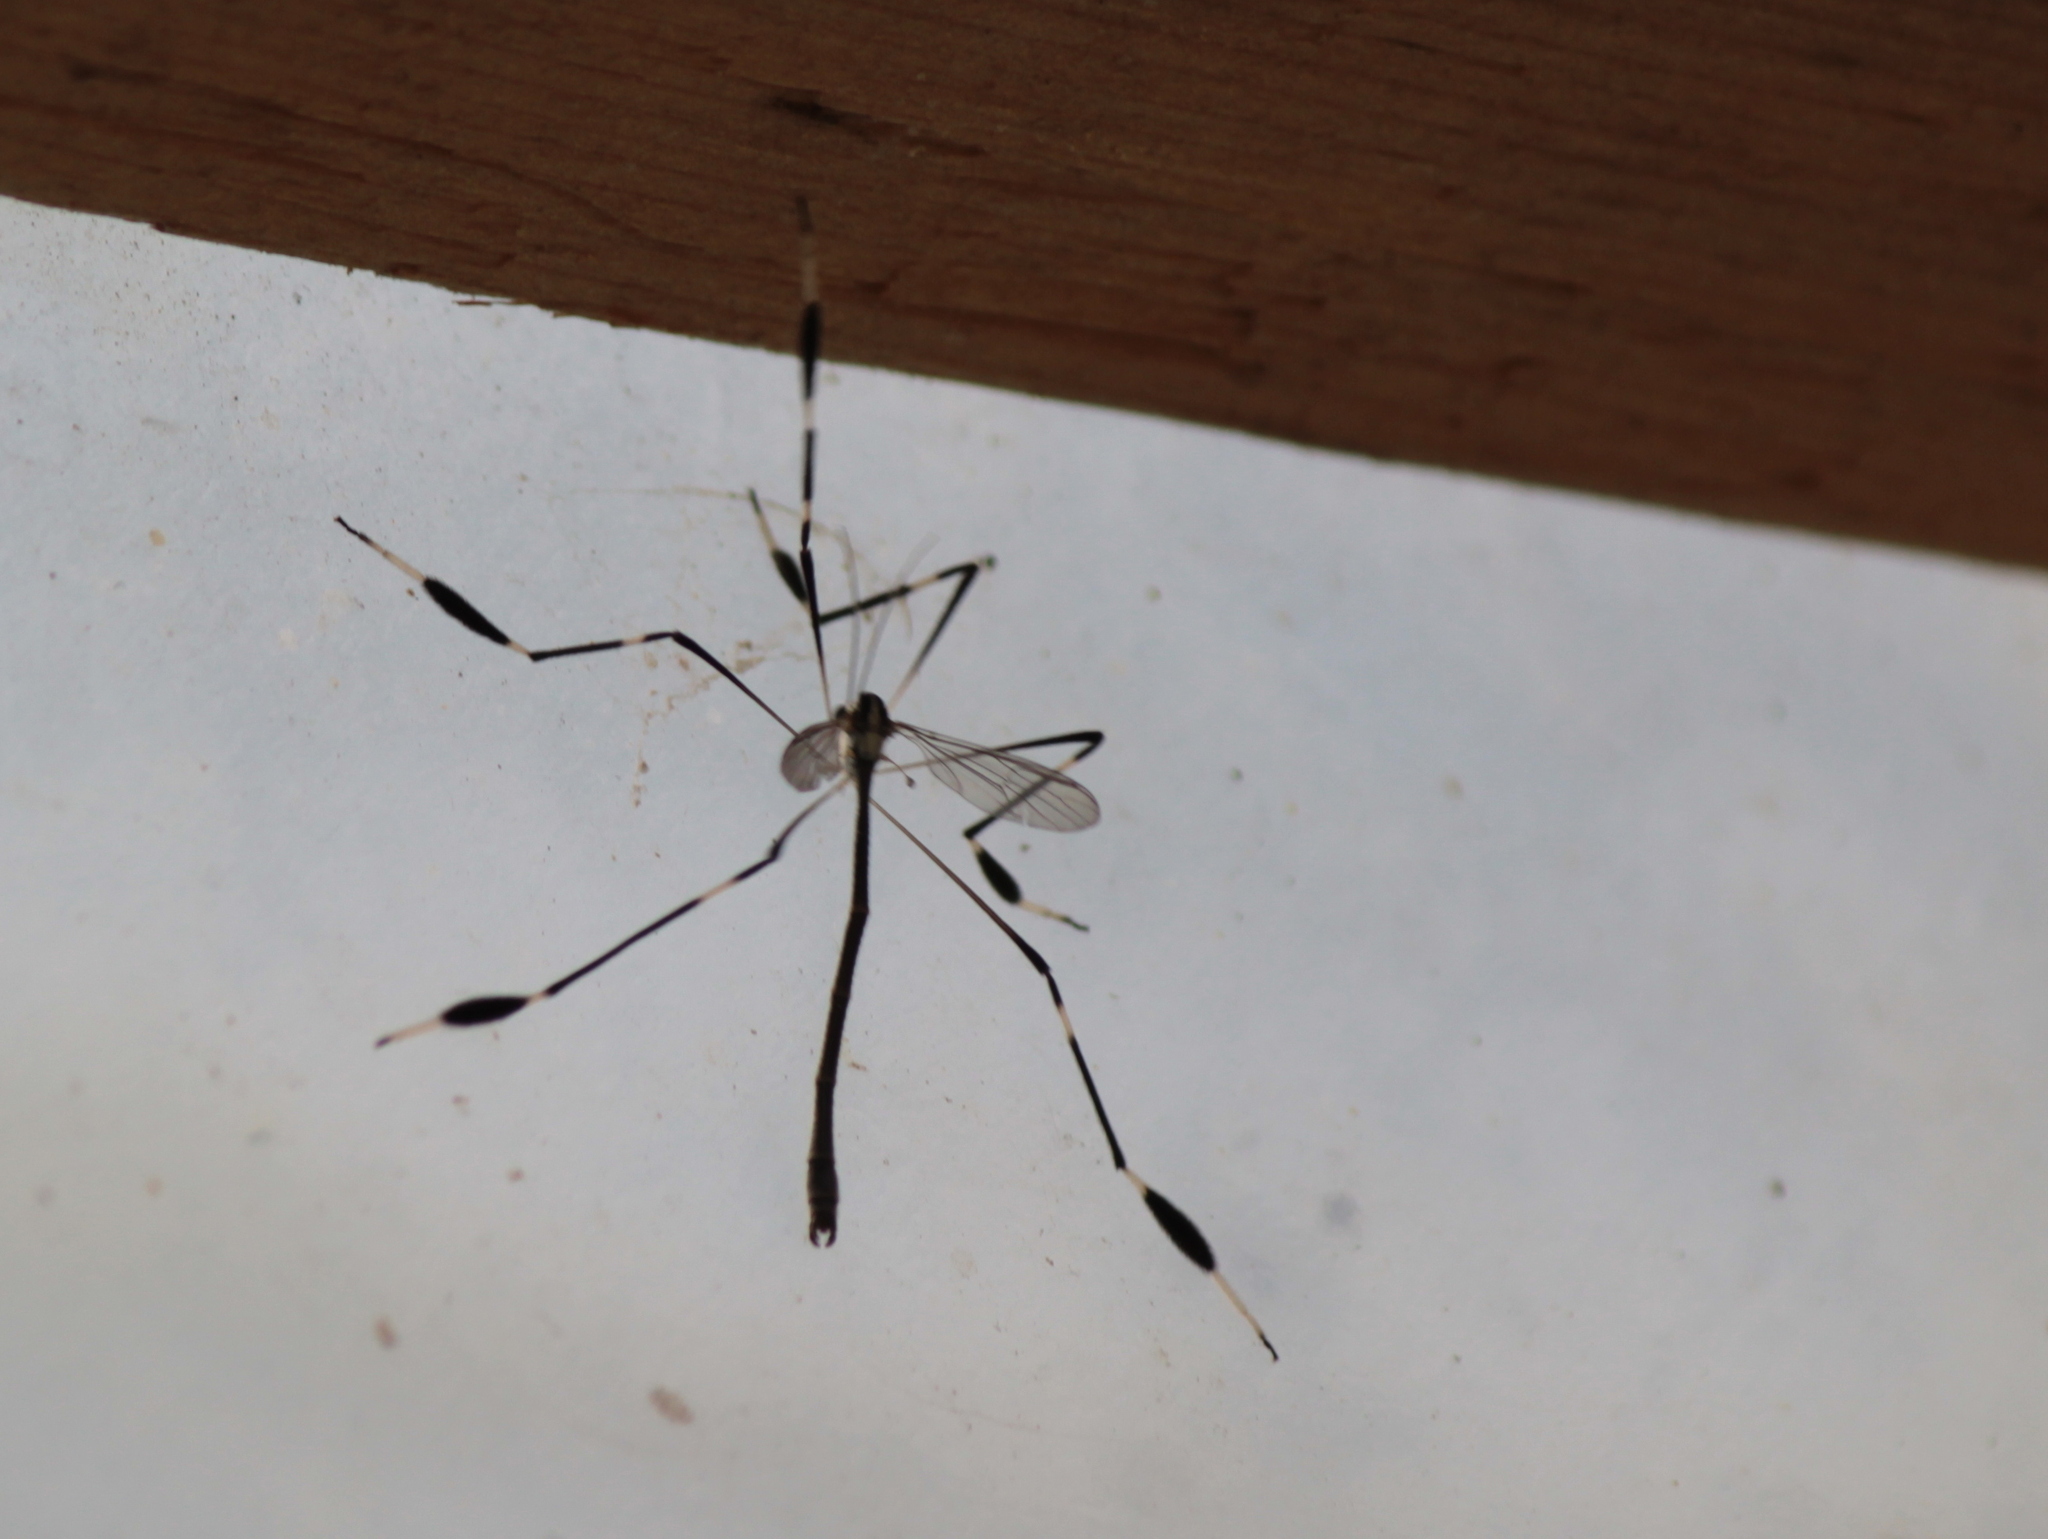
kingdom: Animalia
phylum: Arthropoda
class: Insecta
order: Diptera
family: Ptychopteridae
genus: Bittacomorpha
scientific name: Bittacomorpha clavipes
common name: Eastern phantom crane fly
